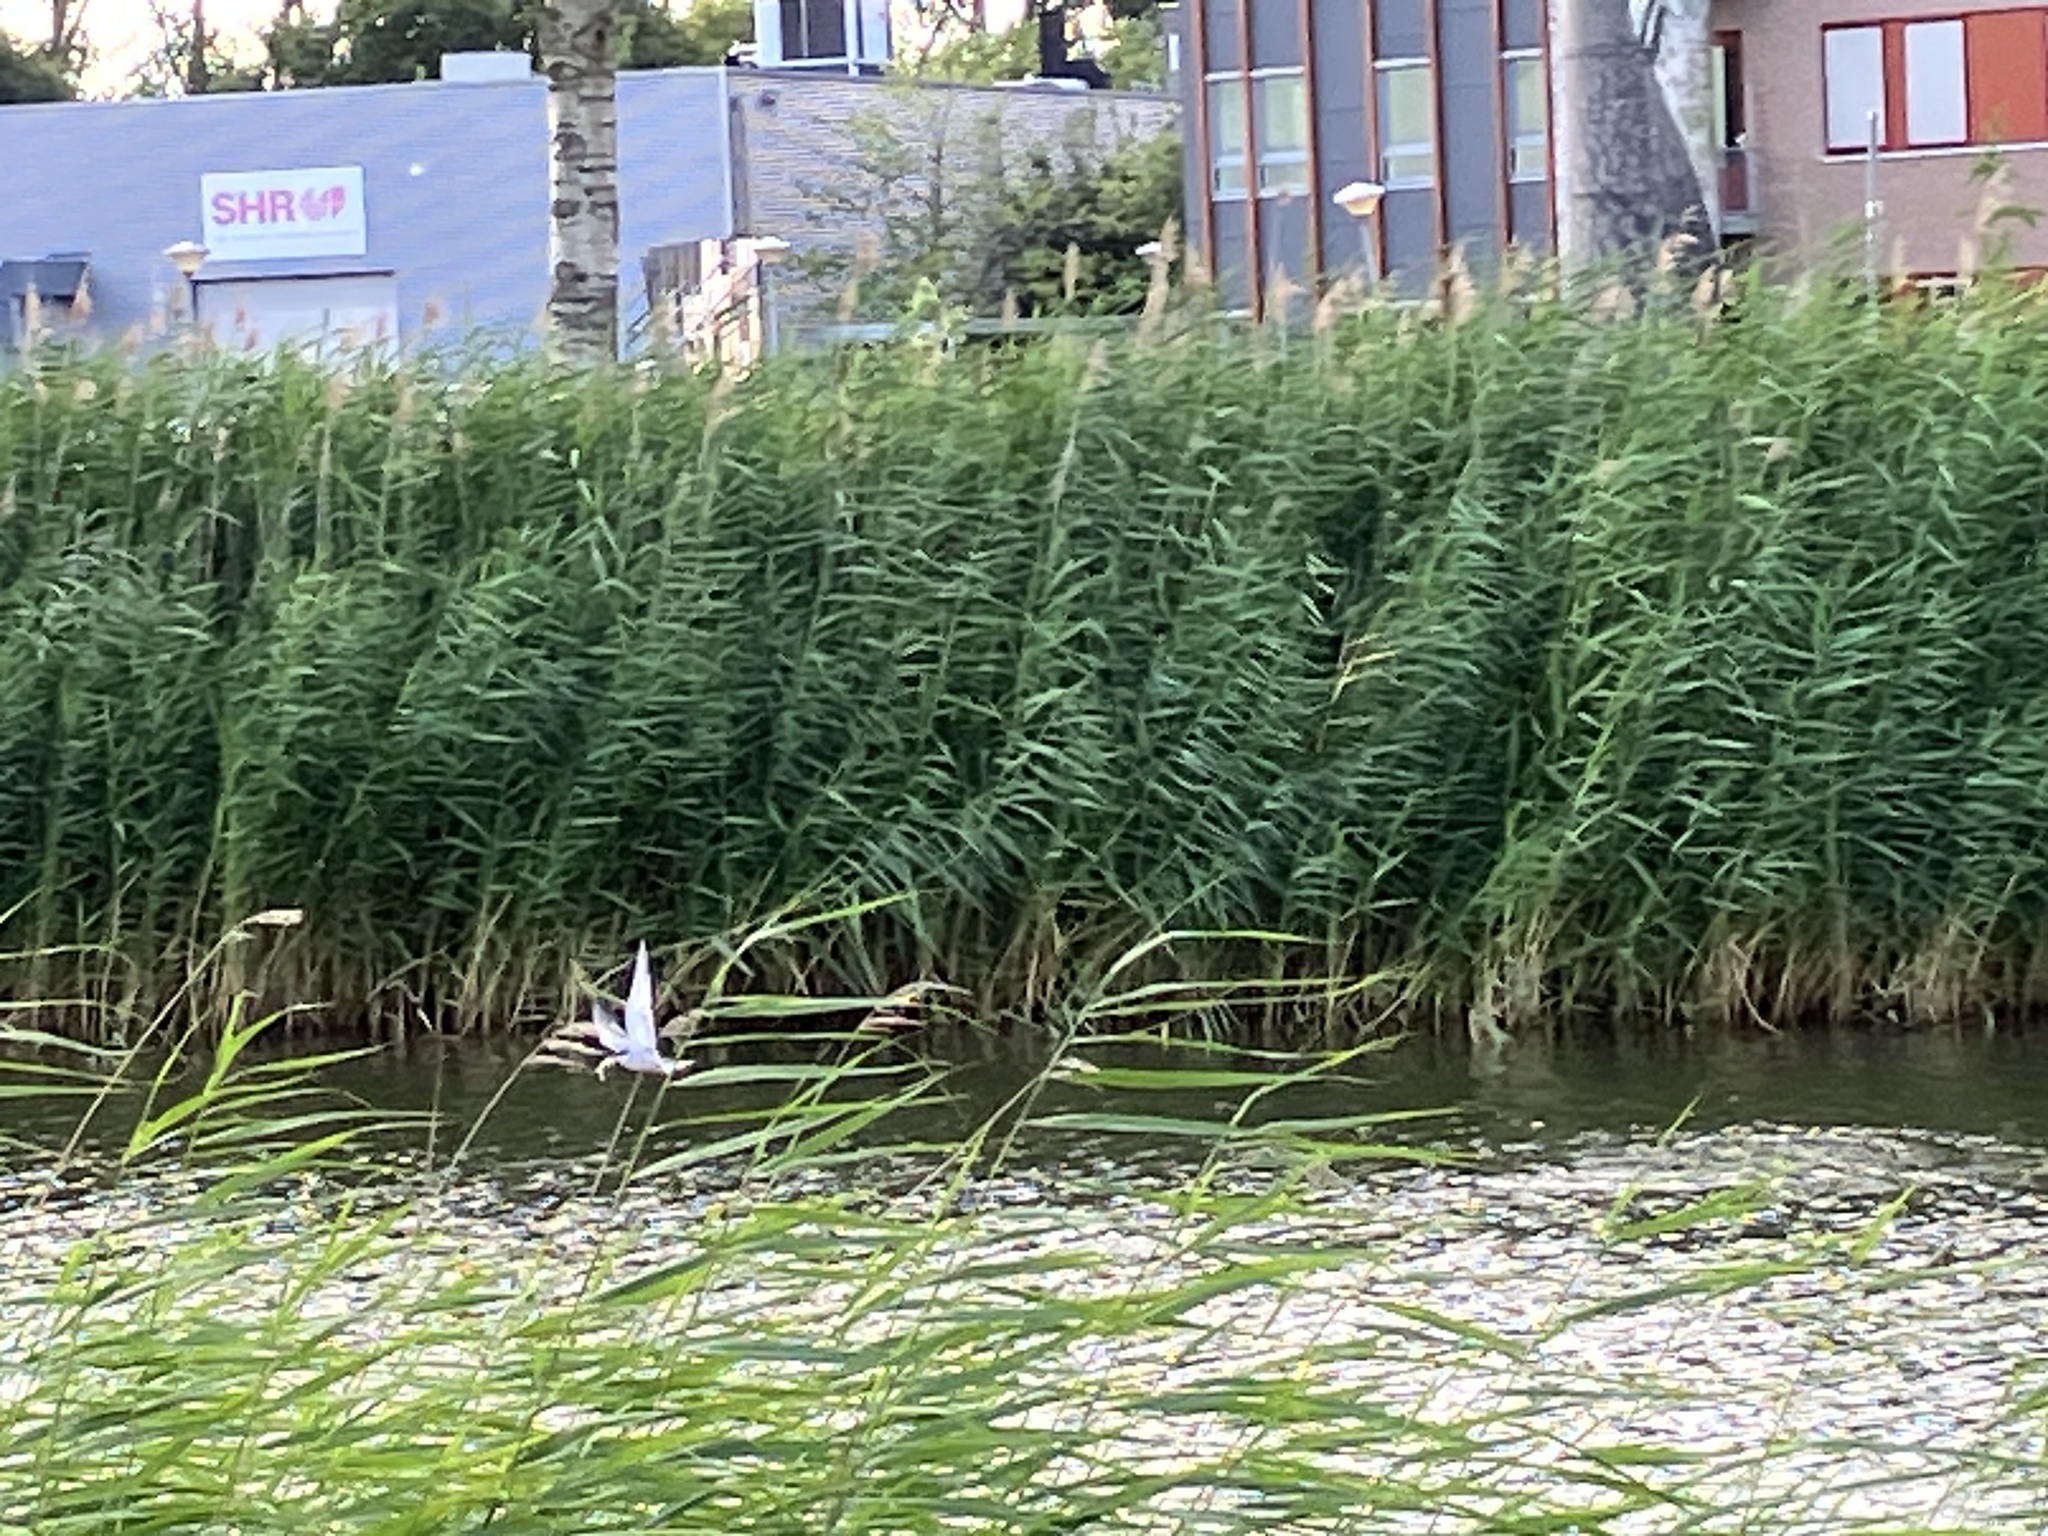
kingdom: Animalia
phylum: Chordata
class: Aves
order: Charadriiformes
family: Laridae
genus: Sterna
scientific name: Sterna hirundo
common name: Common tern
